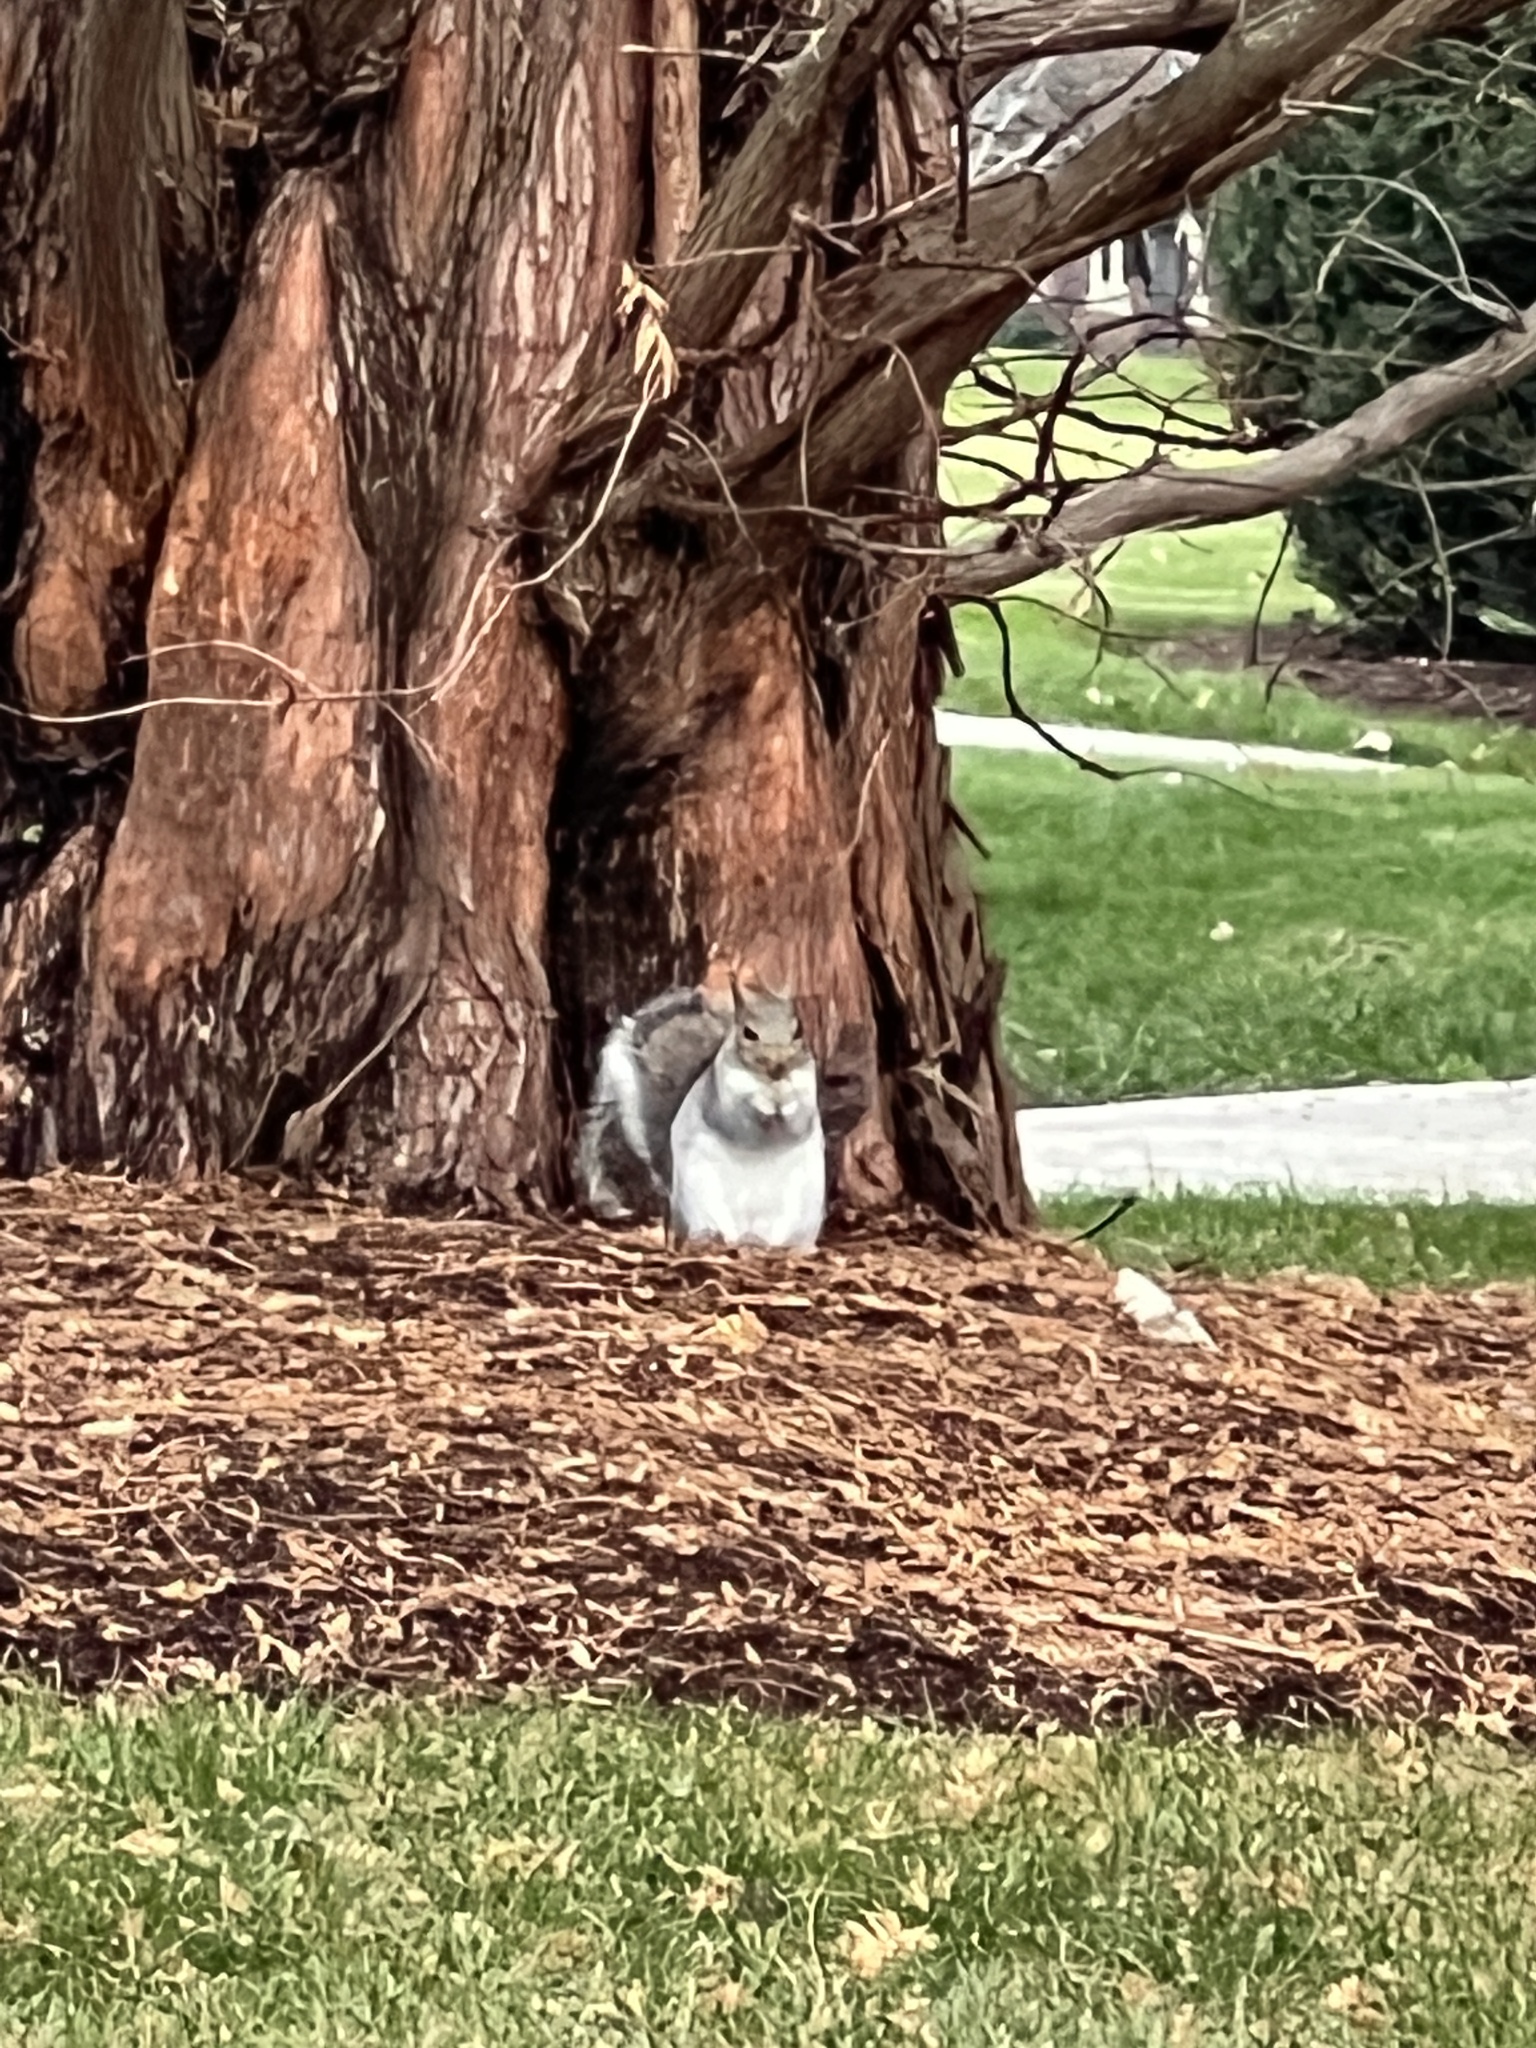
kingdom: Animalia
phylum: Chordata
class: Mammalia
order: Rodentia
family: Sciuridae
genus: Sciurus
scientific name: Sciurus carolinensis
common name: Eastern gray squirrel
